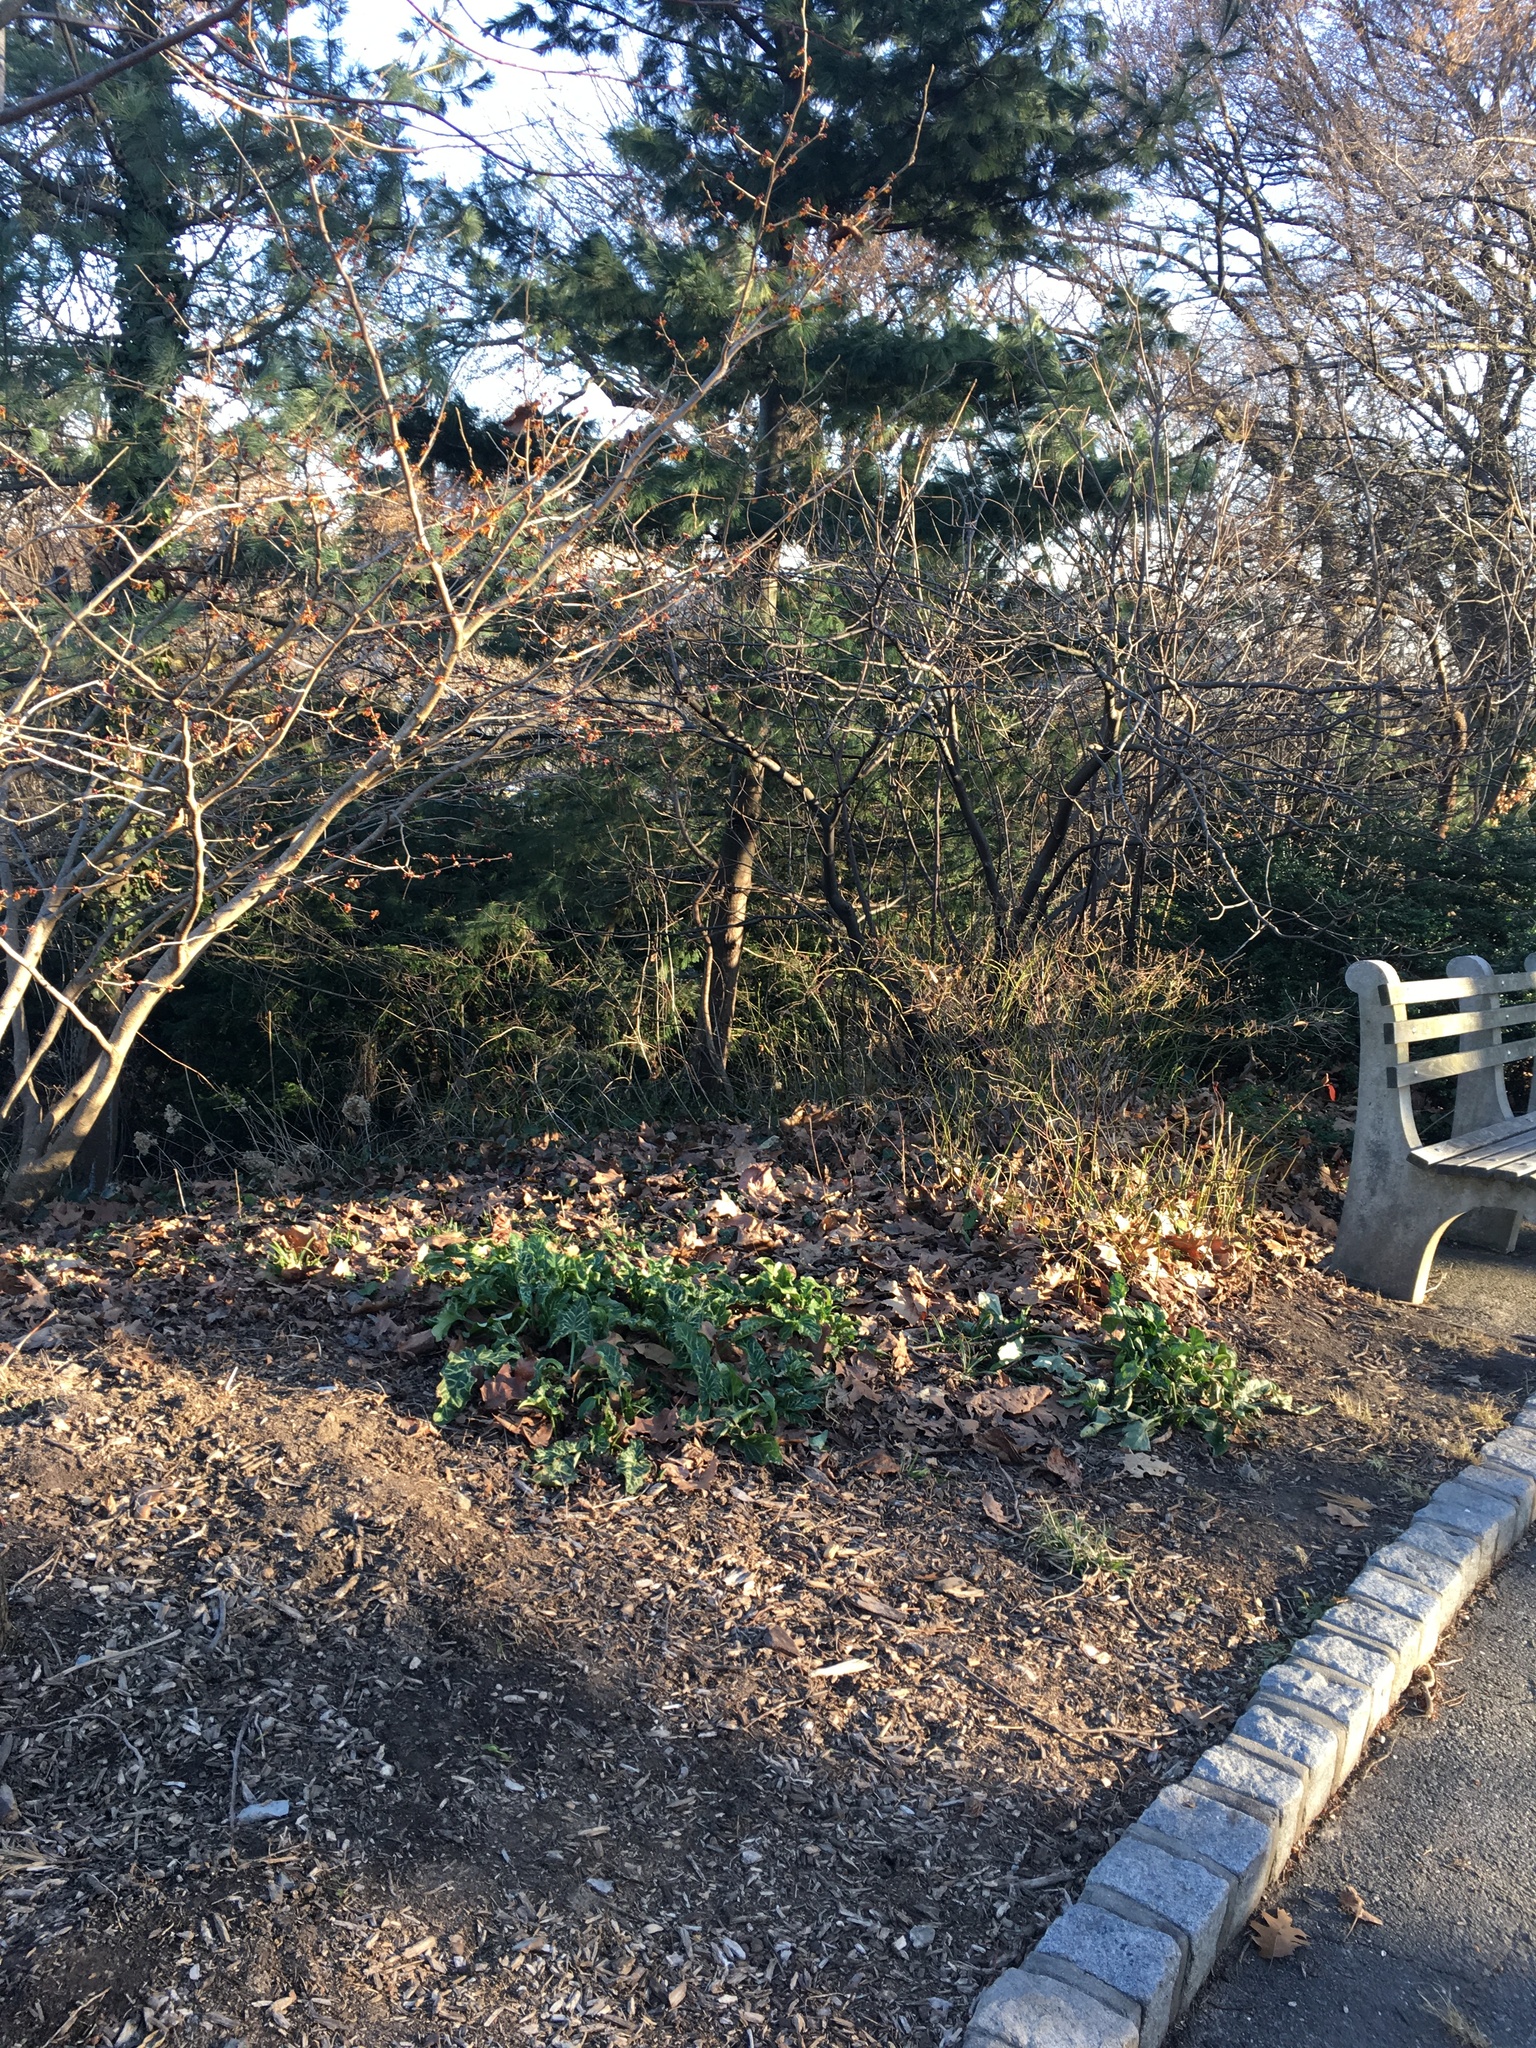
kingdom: Plantae
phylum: Tracheophyta
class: Liliopsida
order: Alismatales
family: Araceae
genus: Arum
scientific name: Arum italicum
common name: Italian lords-and-ladies
